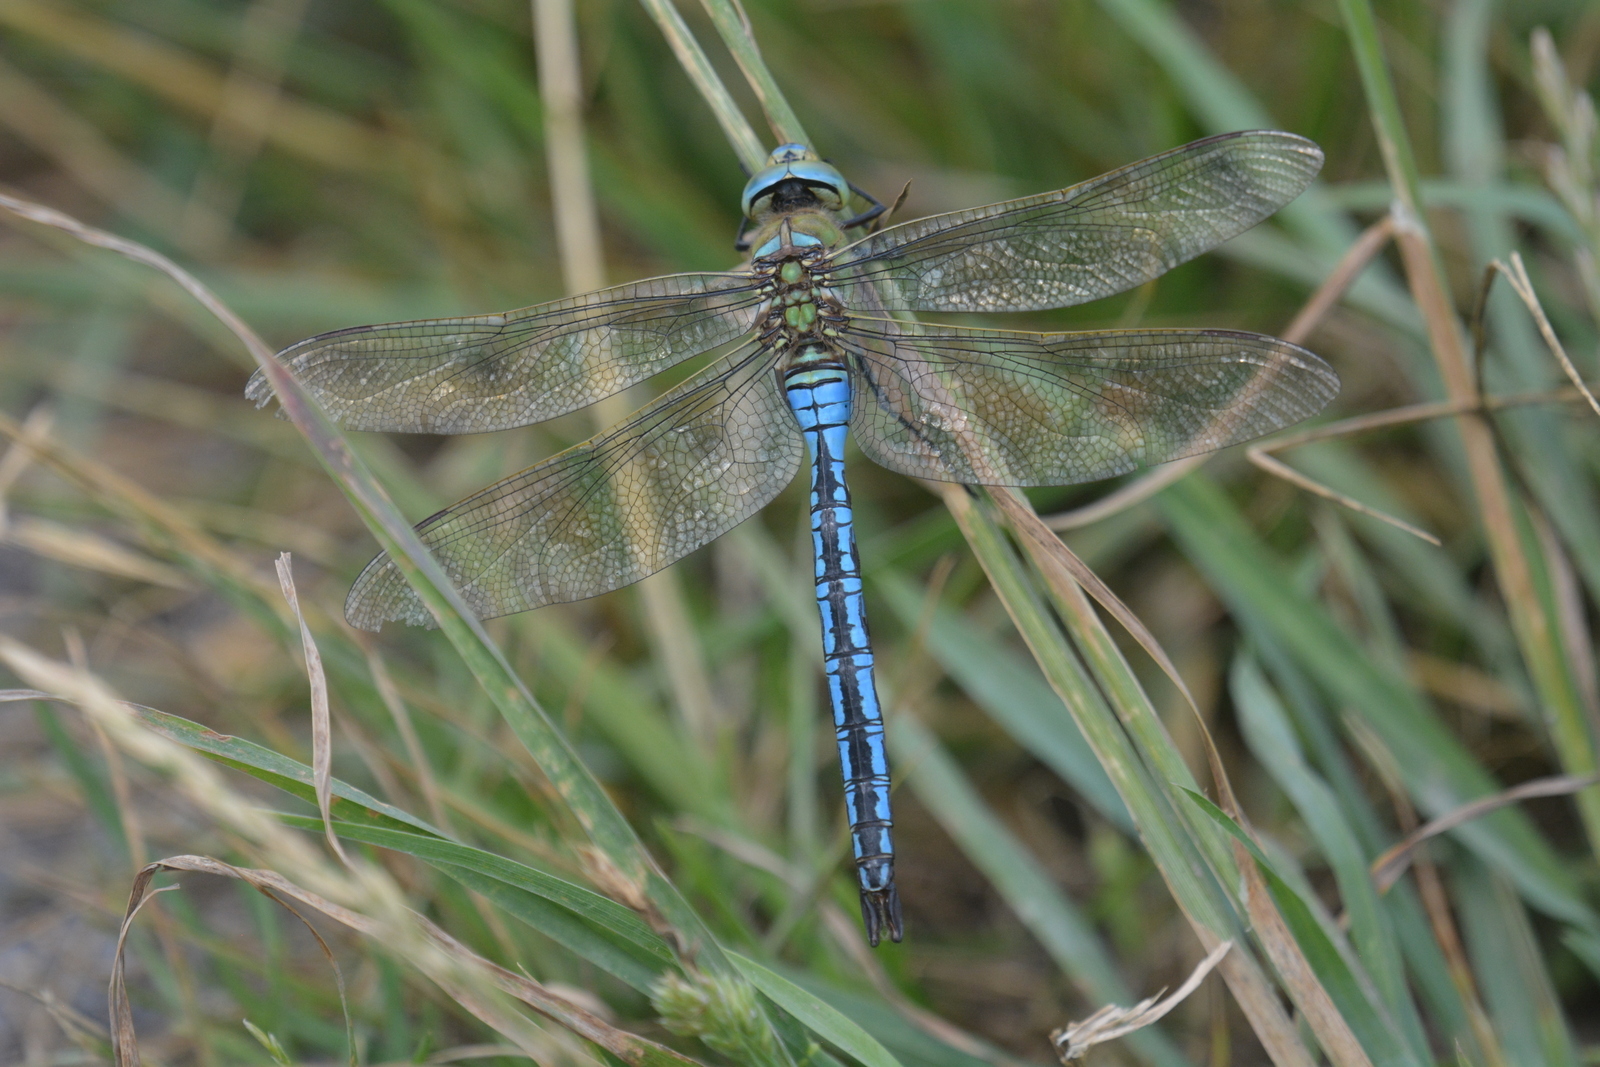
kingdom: Animalia
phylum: Arthropoda
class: Insecta
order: Odonata
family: Aeshnidae
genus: Anax
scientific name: Anax imperator
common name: Emperor dragonfly
